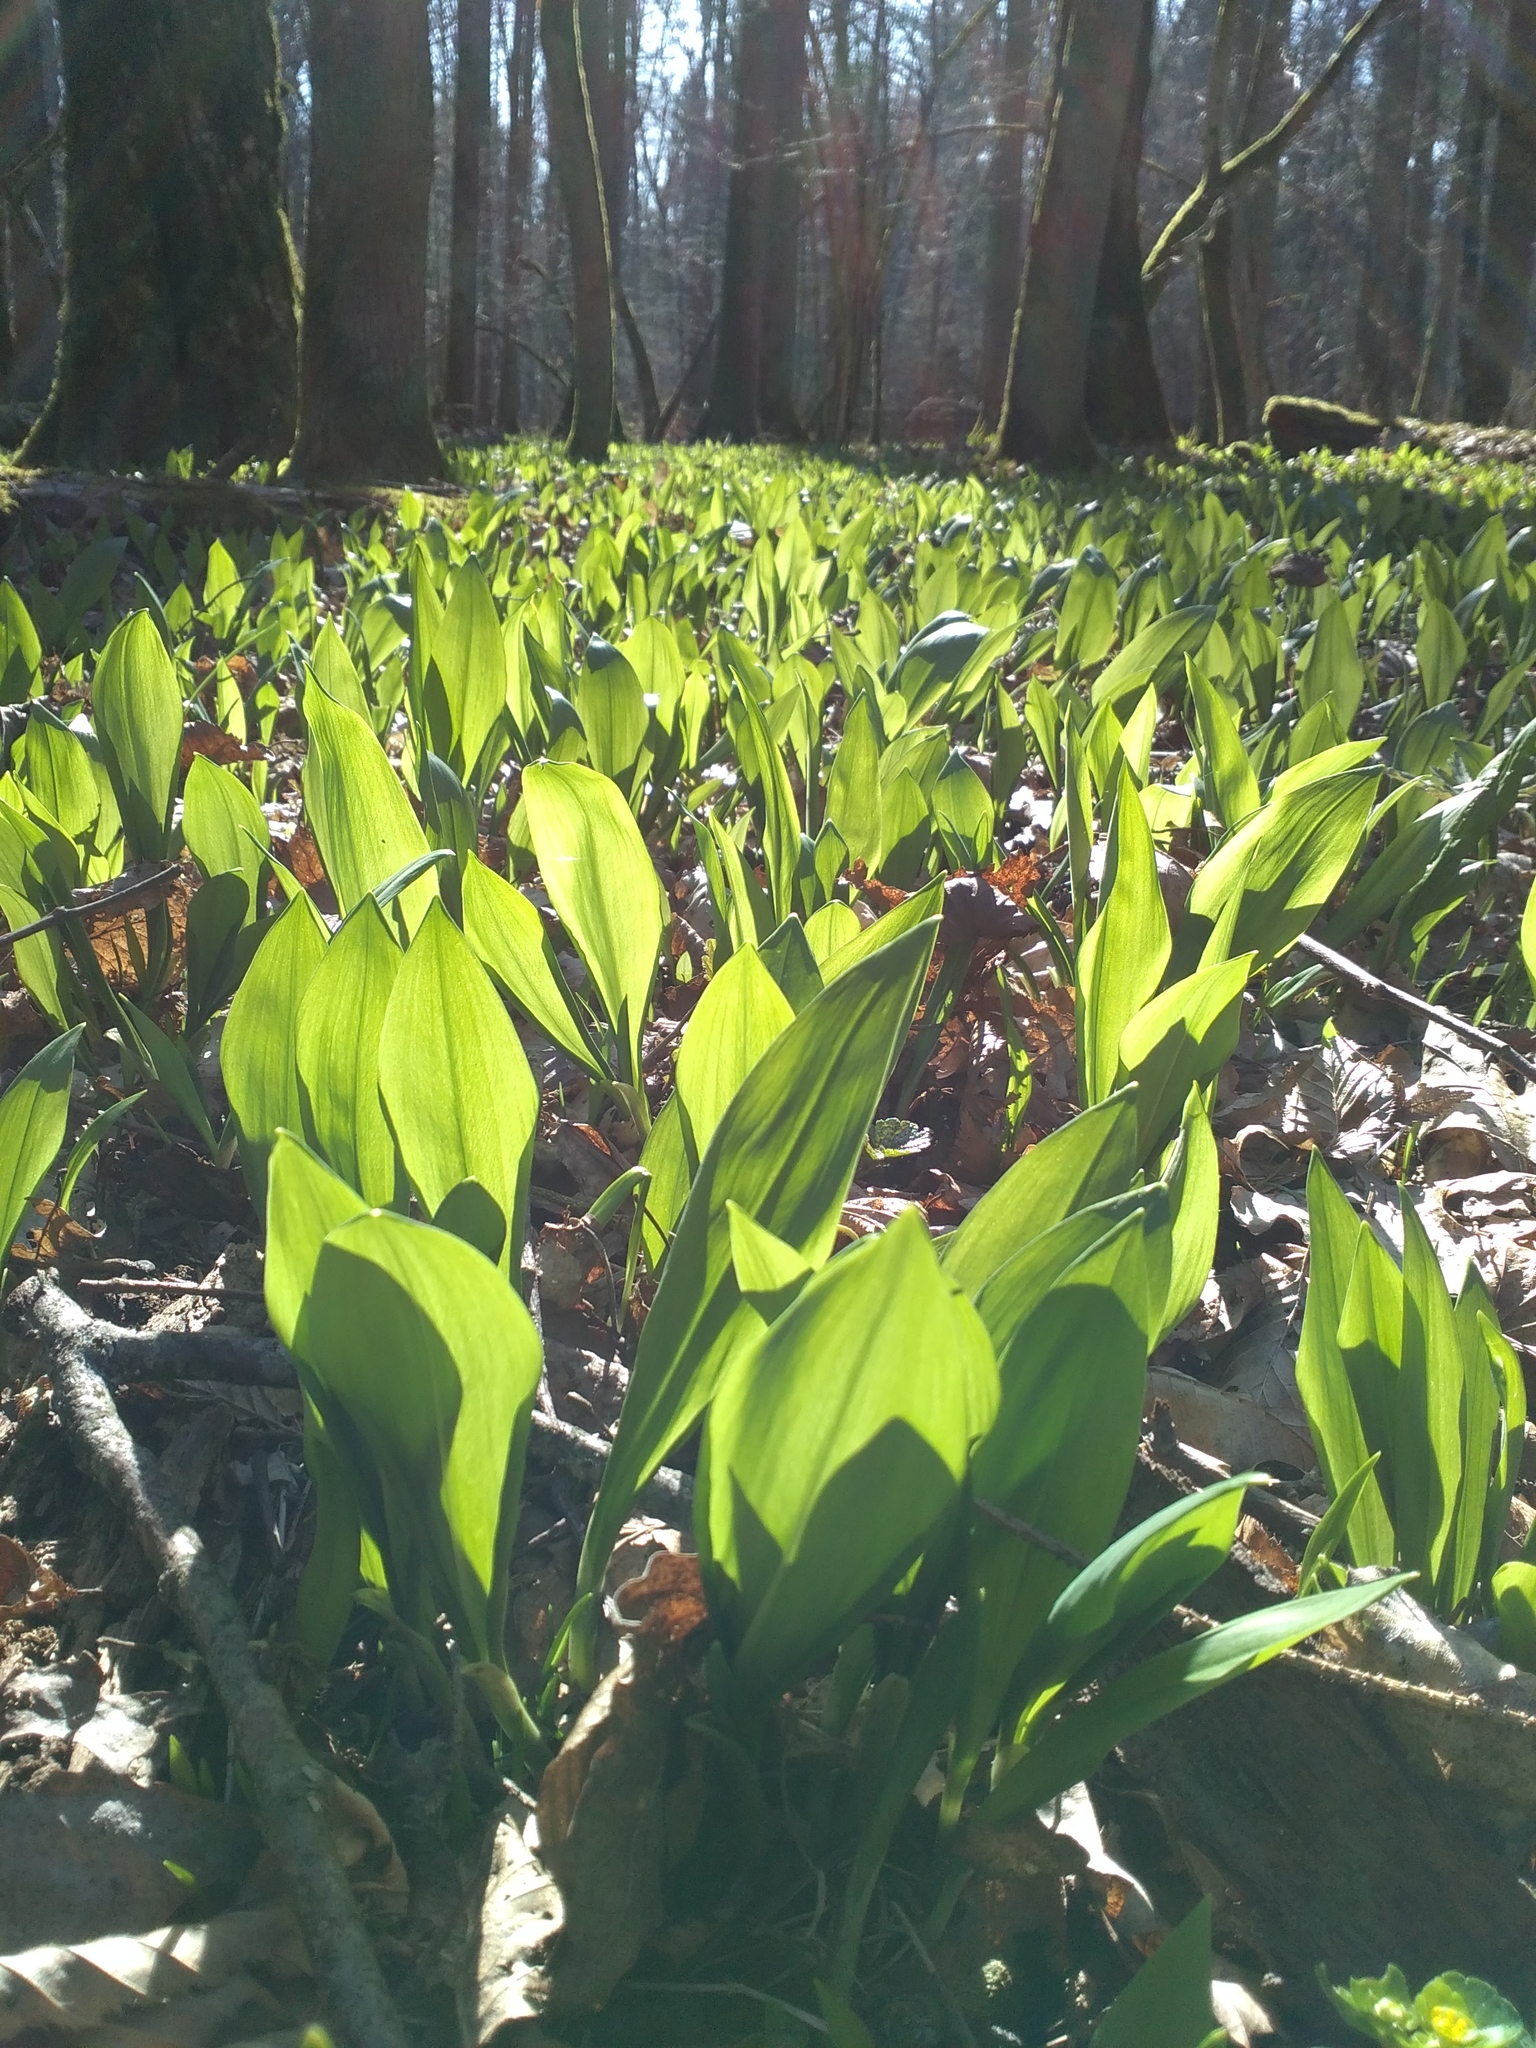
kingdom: Plantae
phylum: Tracheophyta
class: Liliopsida
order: Asparagales
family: Amaryllidaceae
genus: Allium
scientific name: Allium ursinum
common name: Ramsons
